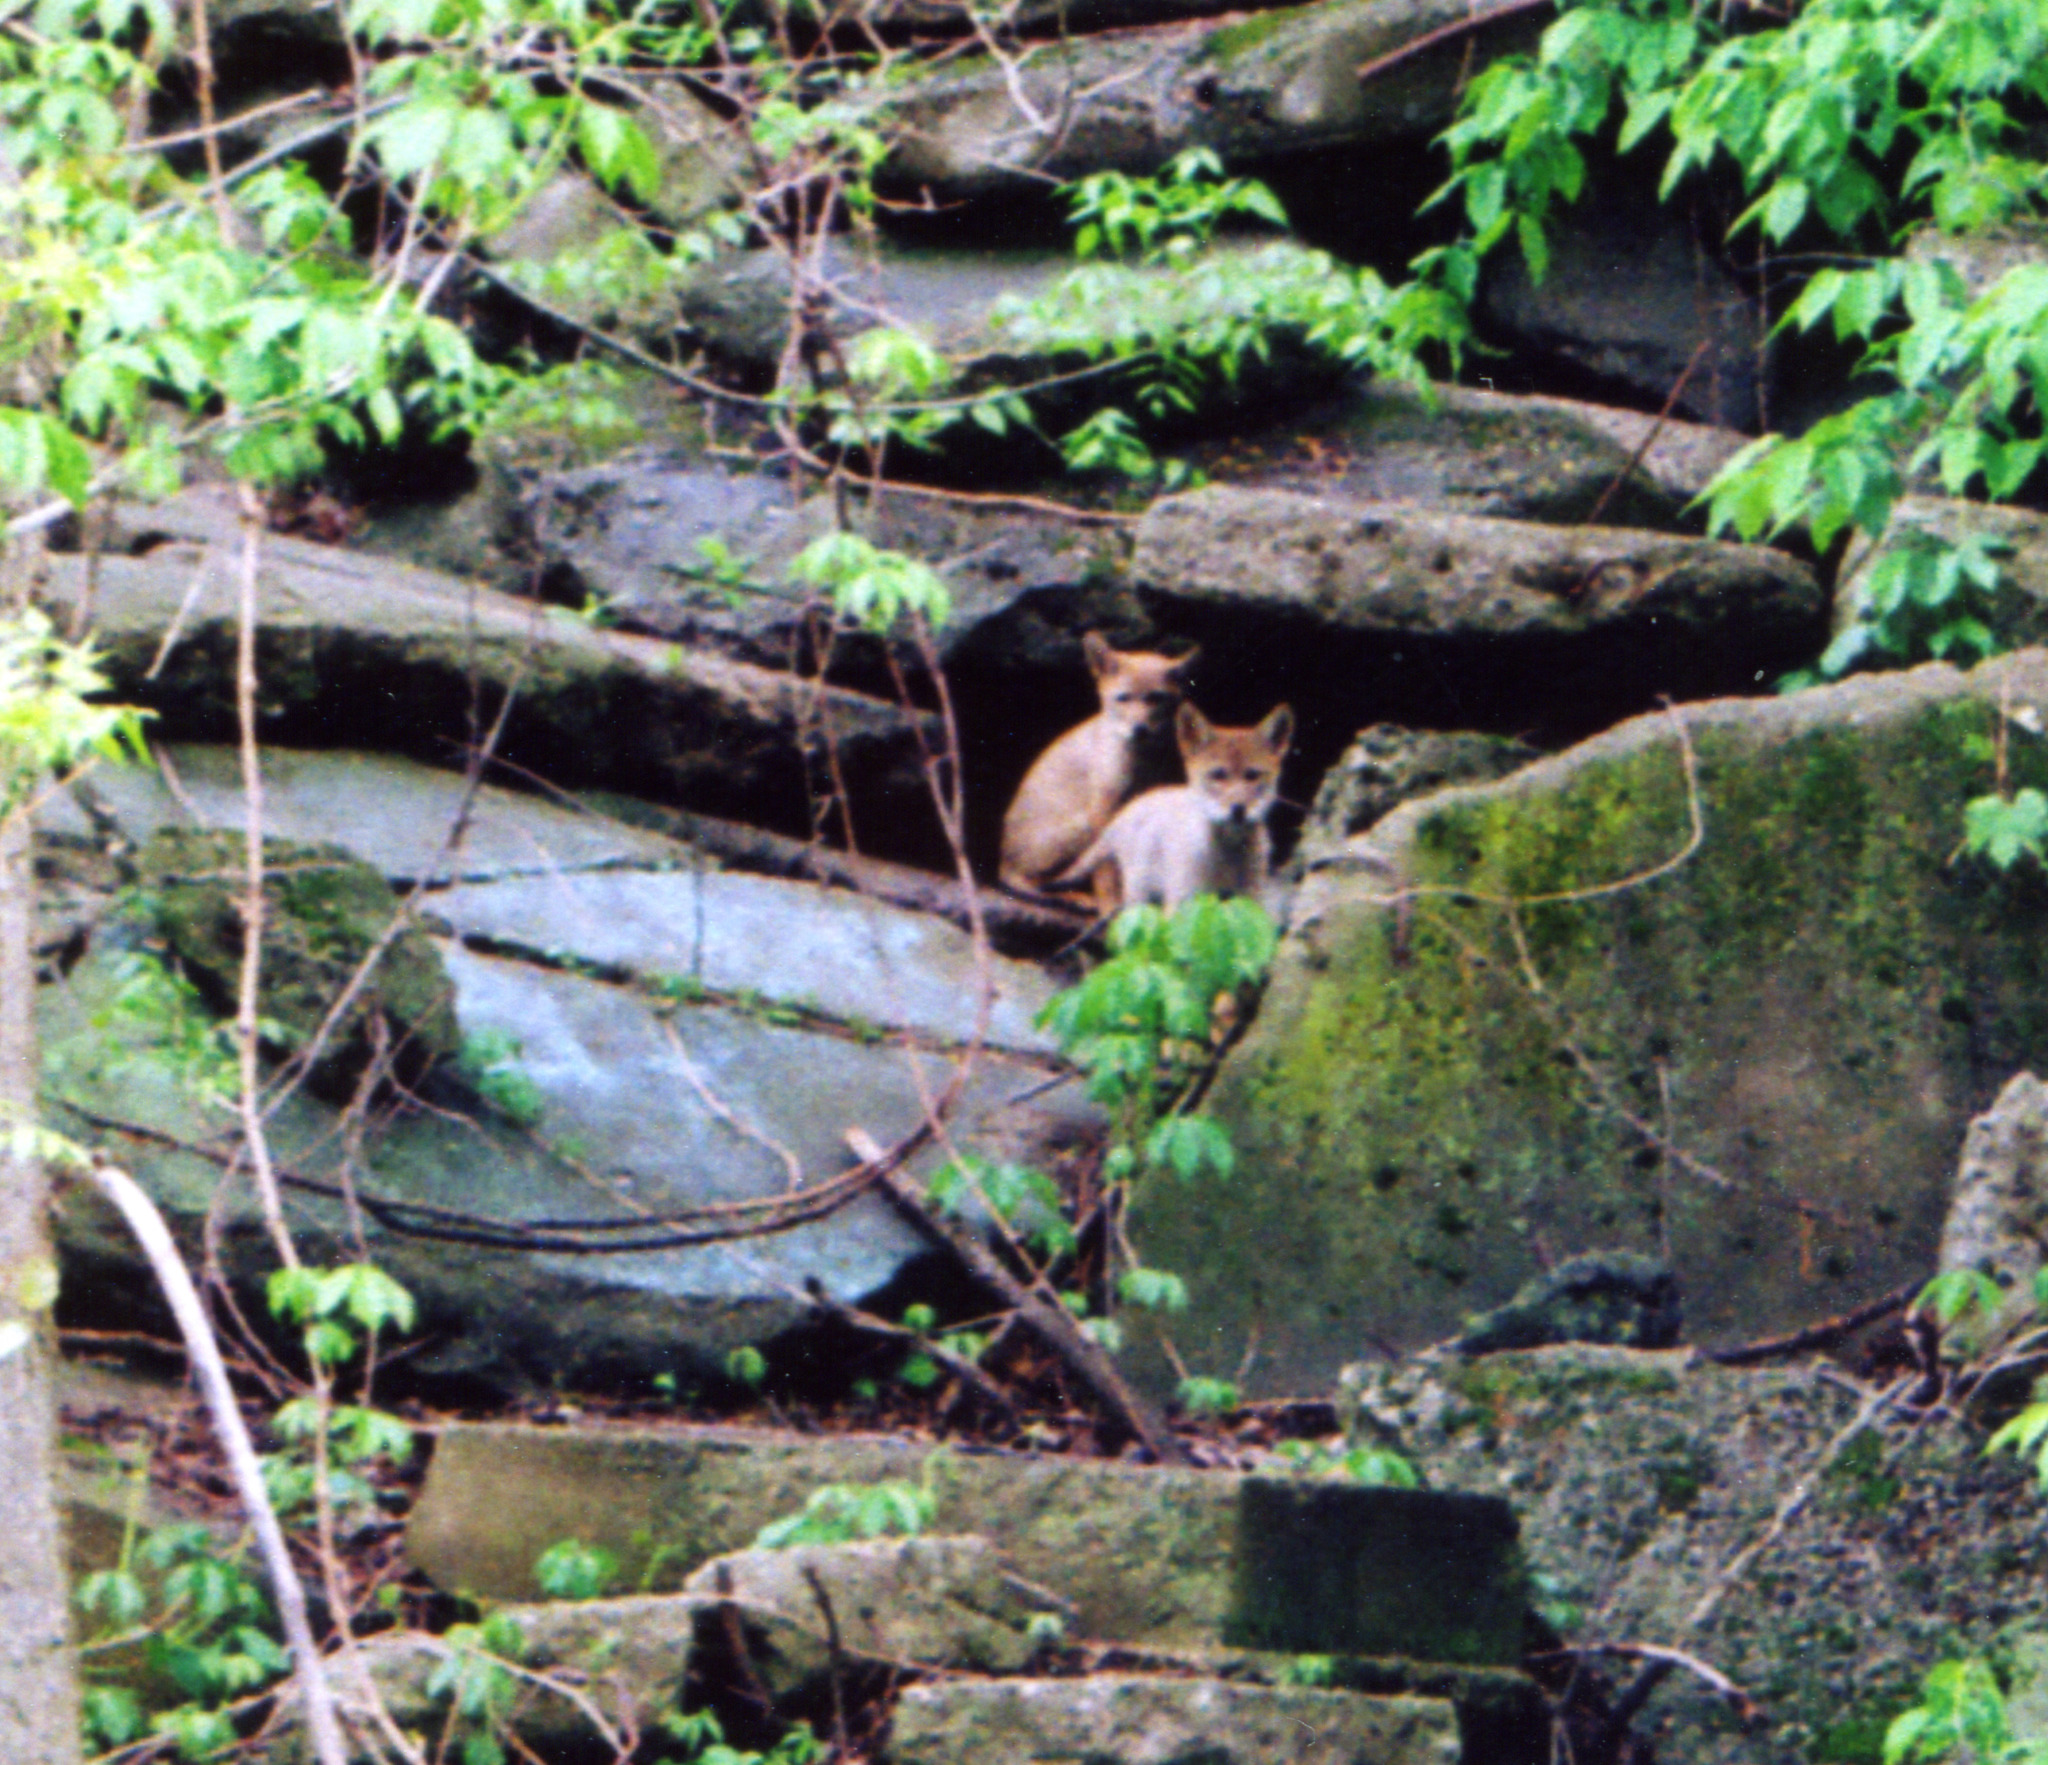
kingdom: Animalia
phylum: Chordata
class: Mammalia
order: Carnivora
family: Canidae
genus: Canis
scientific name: Canis latrans
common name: Coyote
